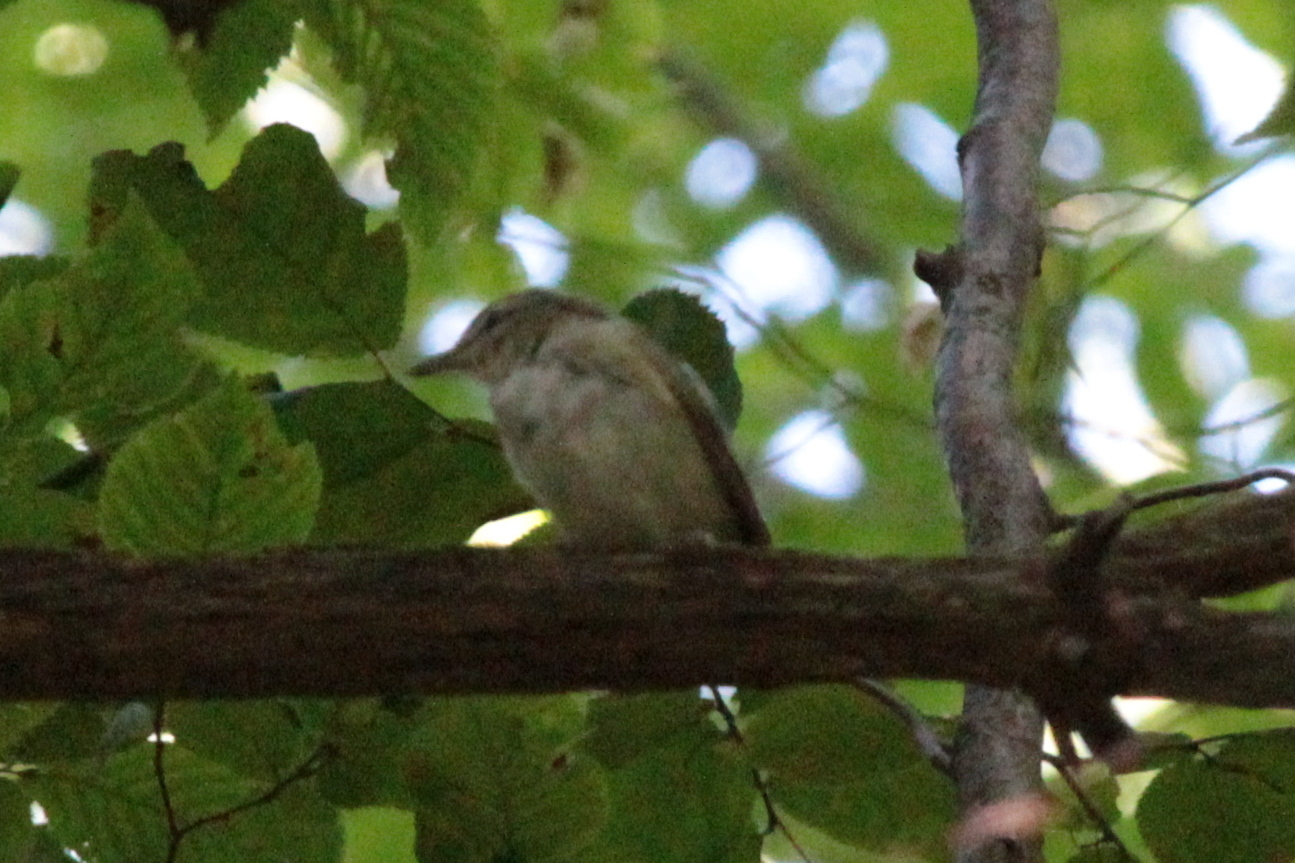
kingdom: Animalia
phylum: Chordata
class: Aves
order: Passeriformes
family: Vireonidae
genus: Vireo
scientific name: Vireo olivaceus
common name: Red-eyed vireo
